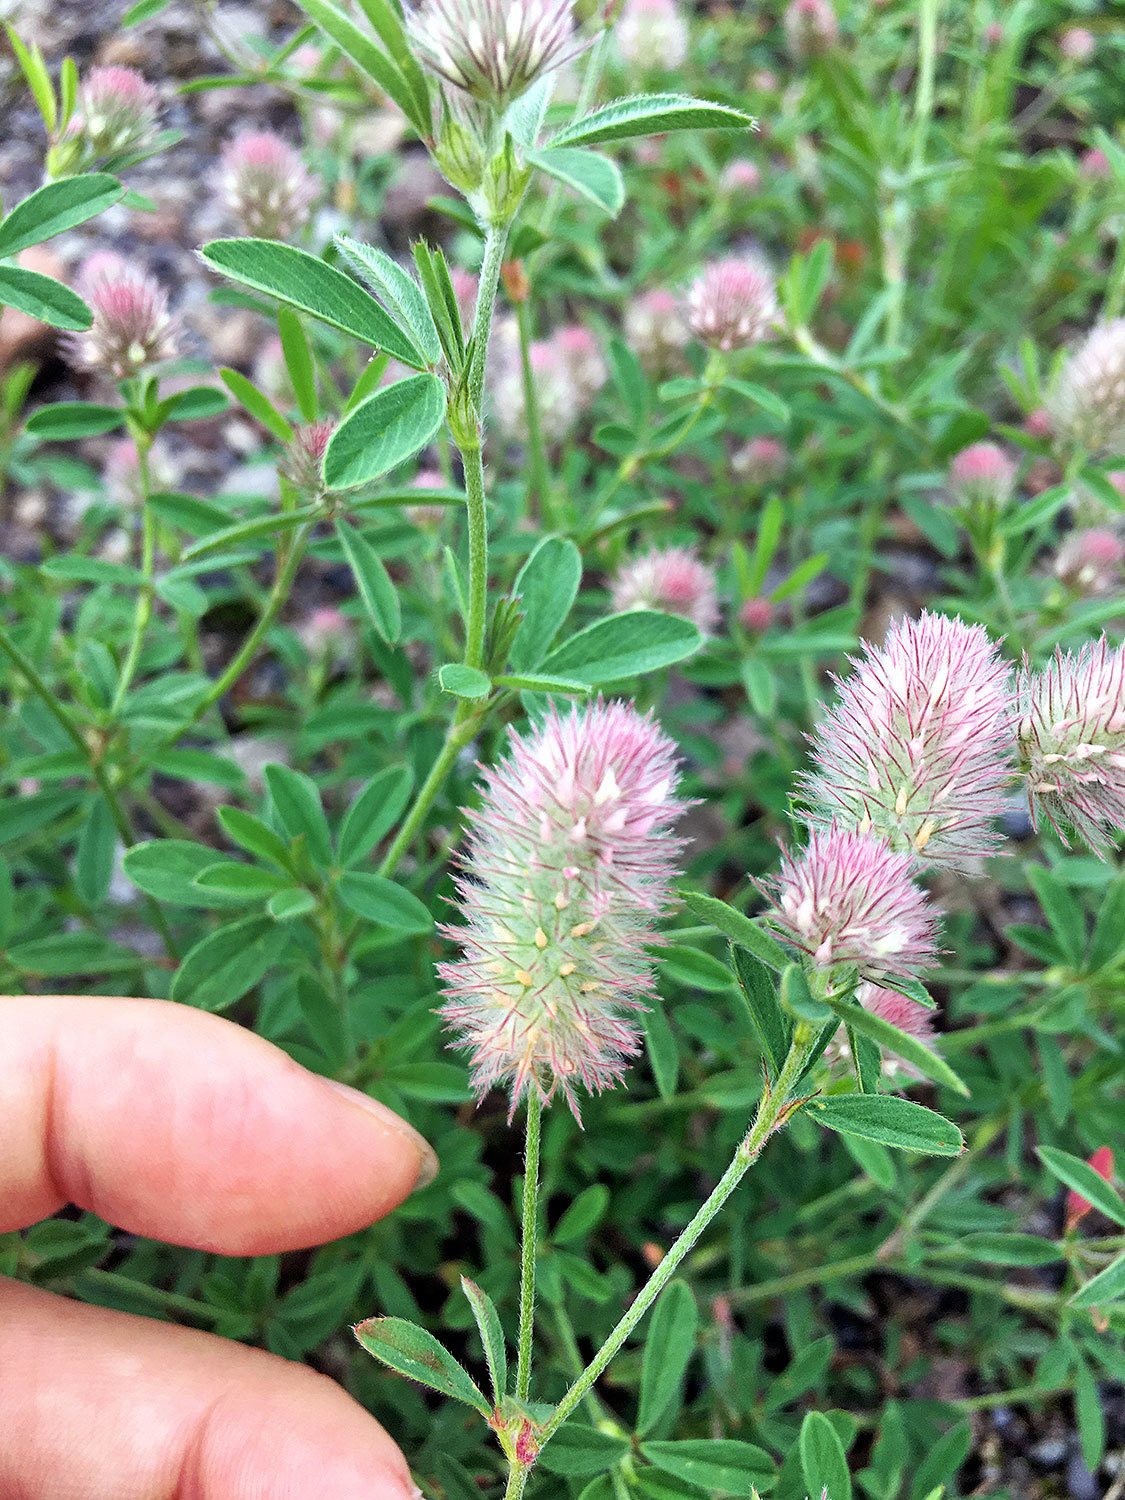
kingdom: Plantae
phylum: Tracheophyta
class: Magnoliopsida
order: Fabales
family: Fabaceae
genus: Trifolium
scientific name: Trifolium arvense
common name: Hare's-foot clover
